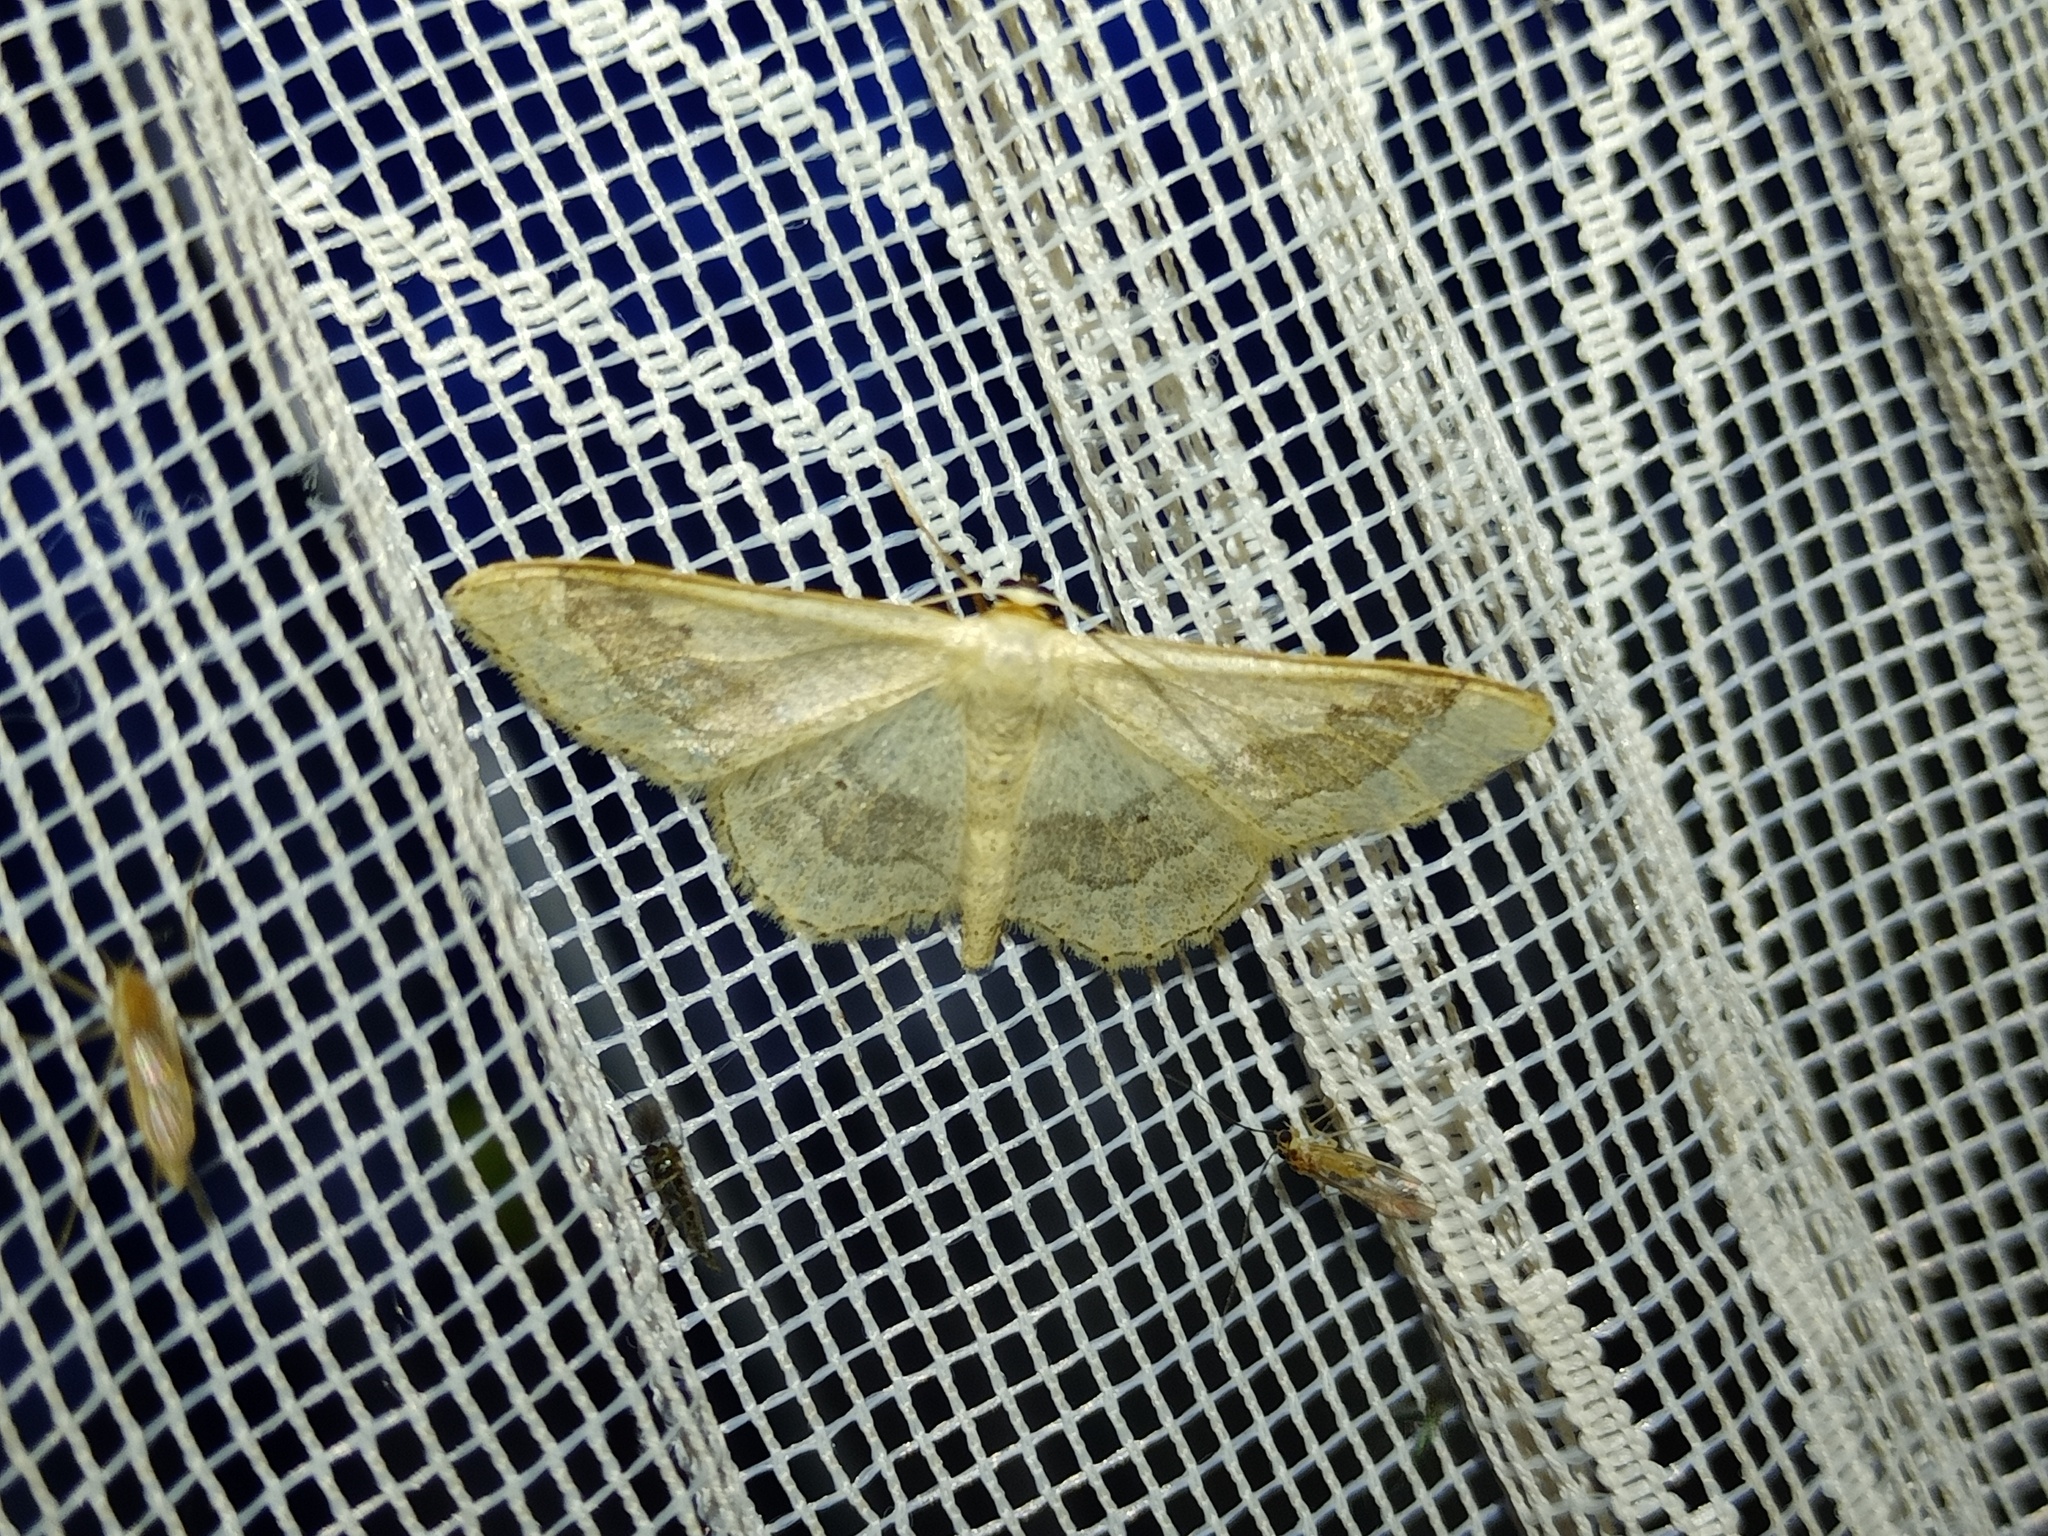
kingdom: Animalia
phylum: Arthropoda
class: Insecta
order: Lepidoptera
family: Geometridae
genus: Idaea
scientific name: Idaea aversata
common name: Riband wave
